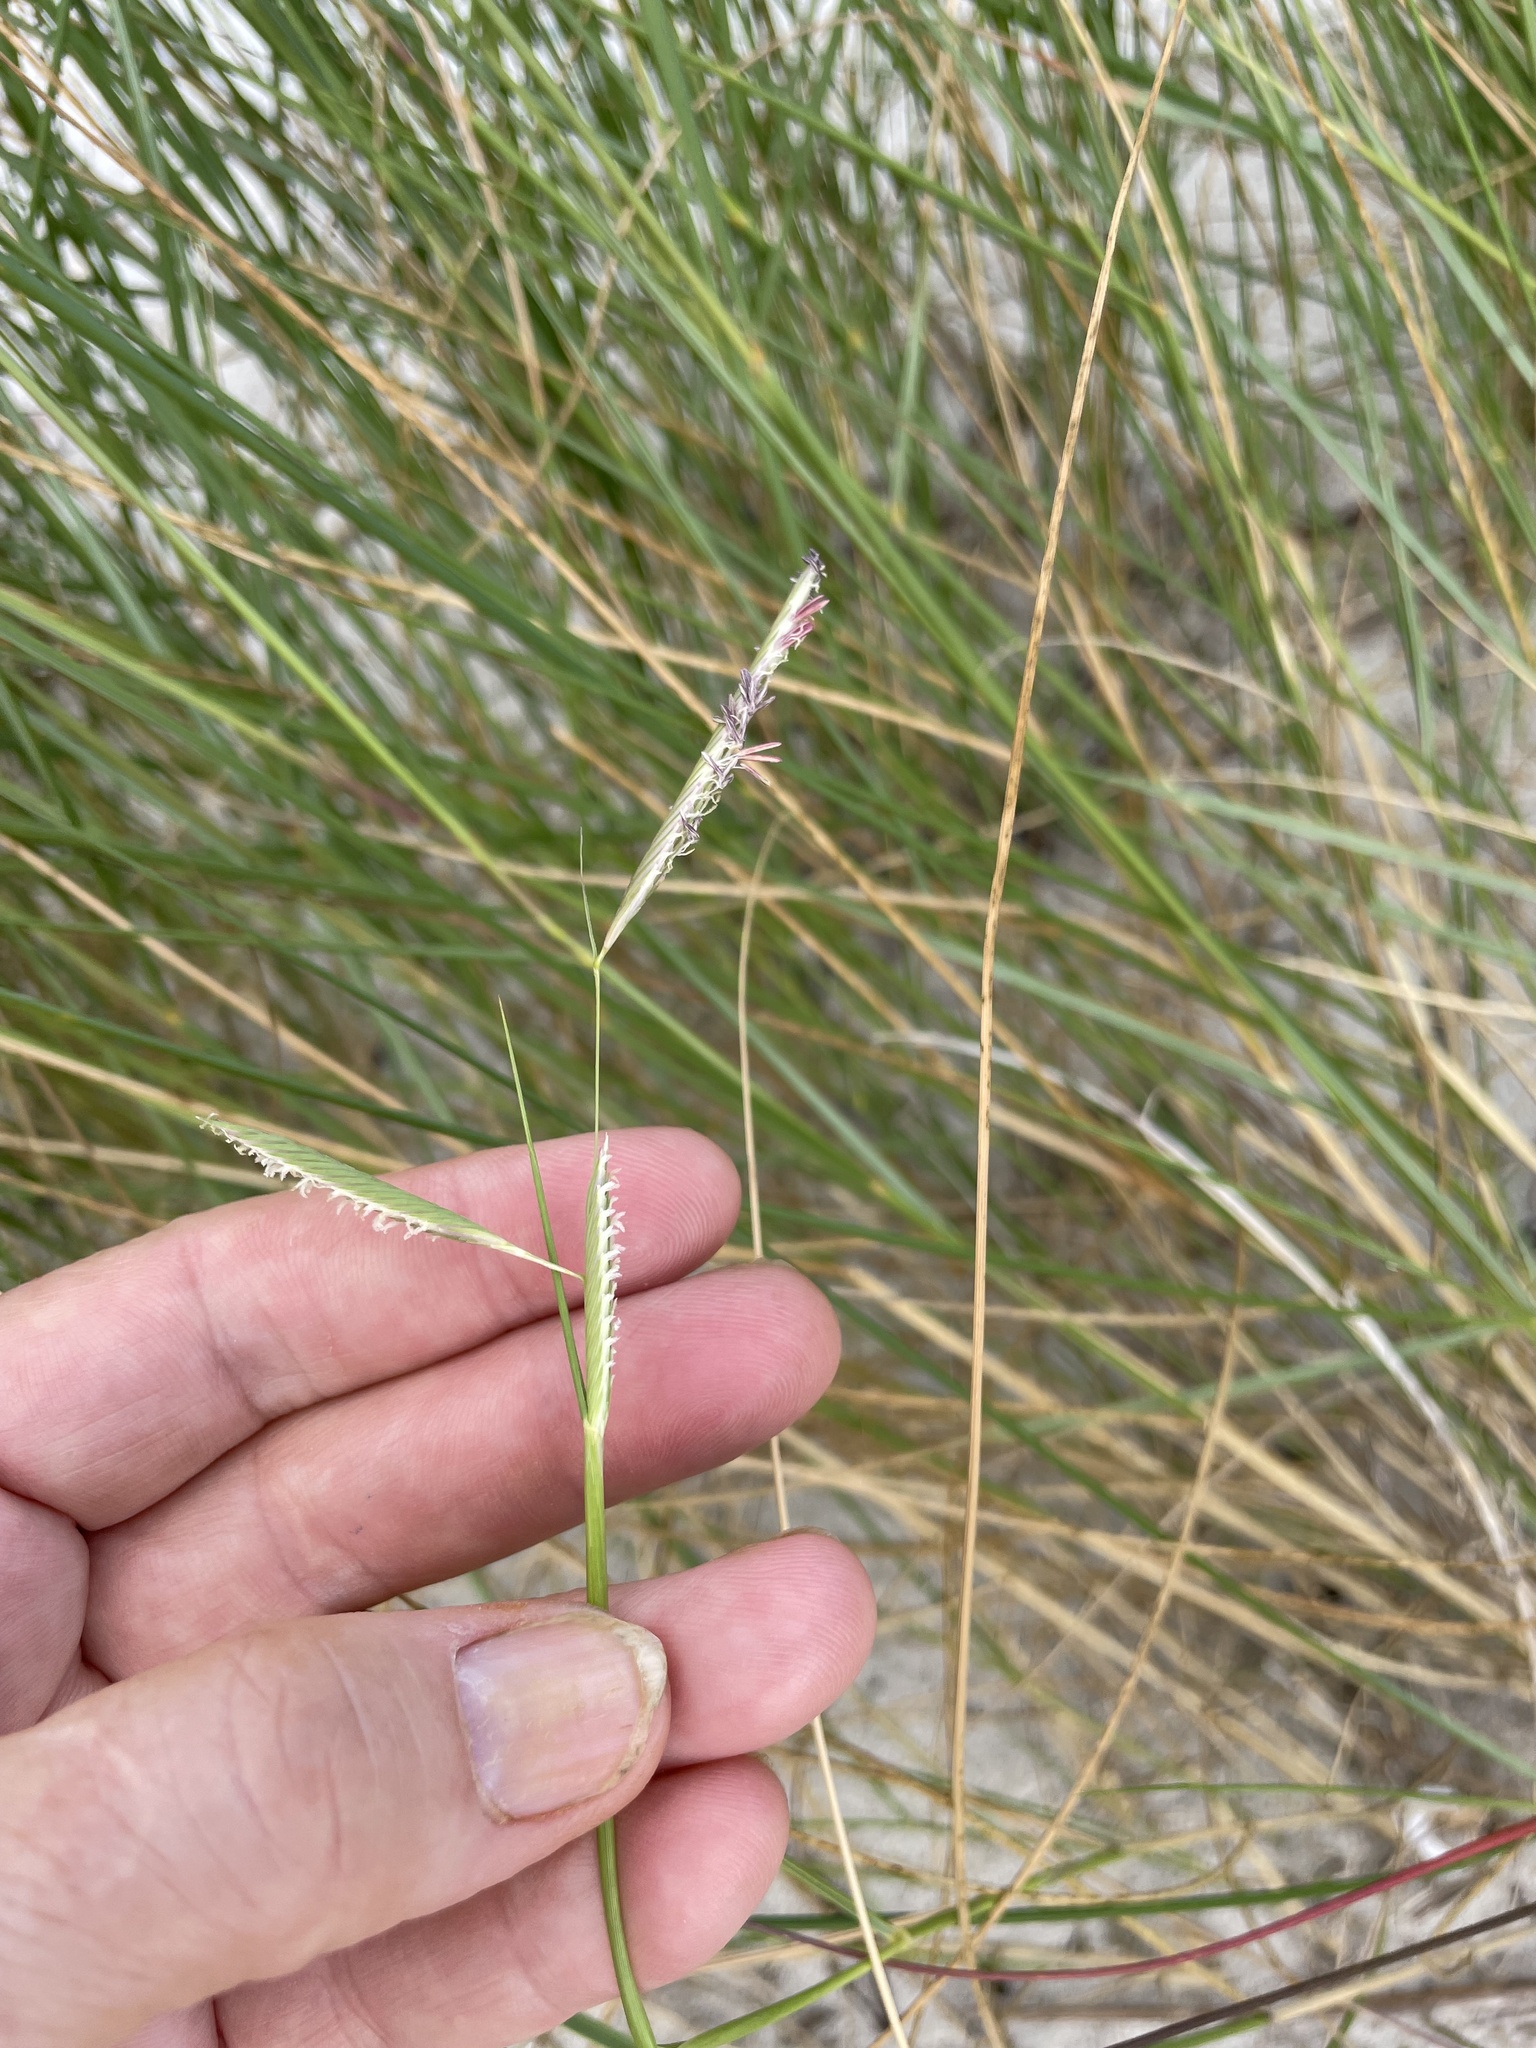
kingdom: Plantae
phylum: Tracheophyta
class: Liliopsida
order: Poales
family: Poaceae
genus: Sporobolus
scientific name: Sporobolus pumilus
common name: Highwater grass
